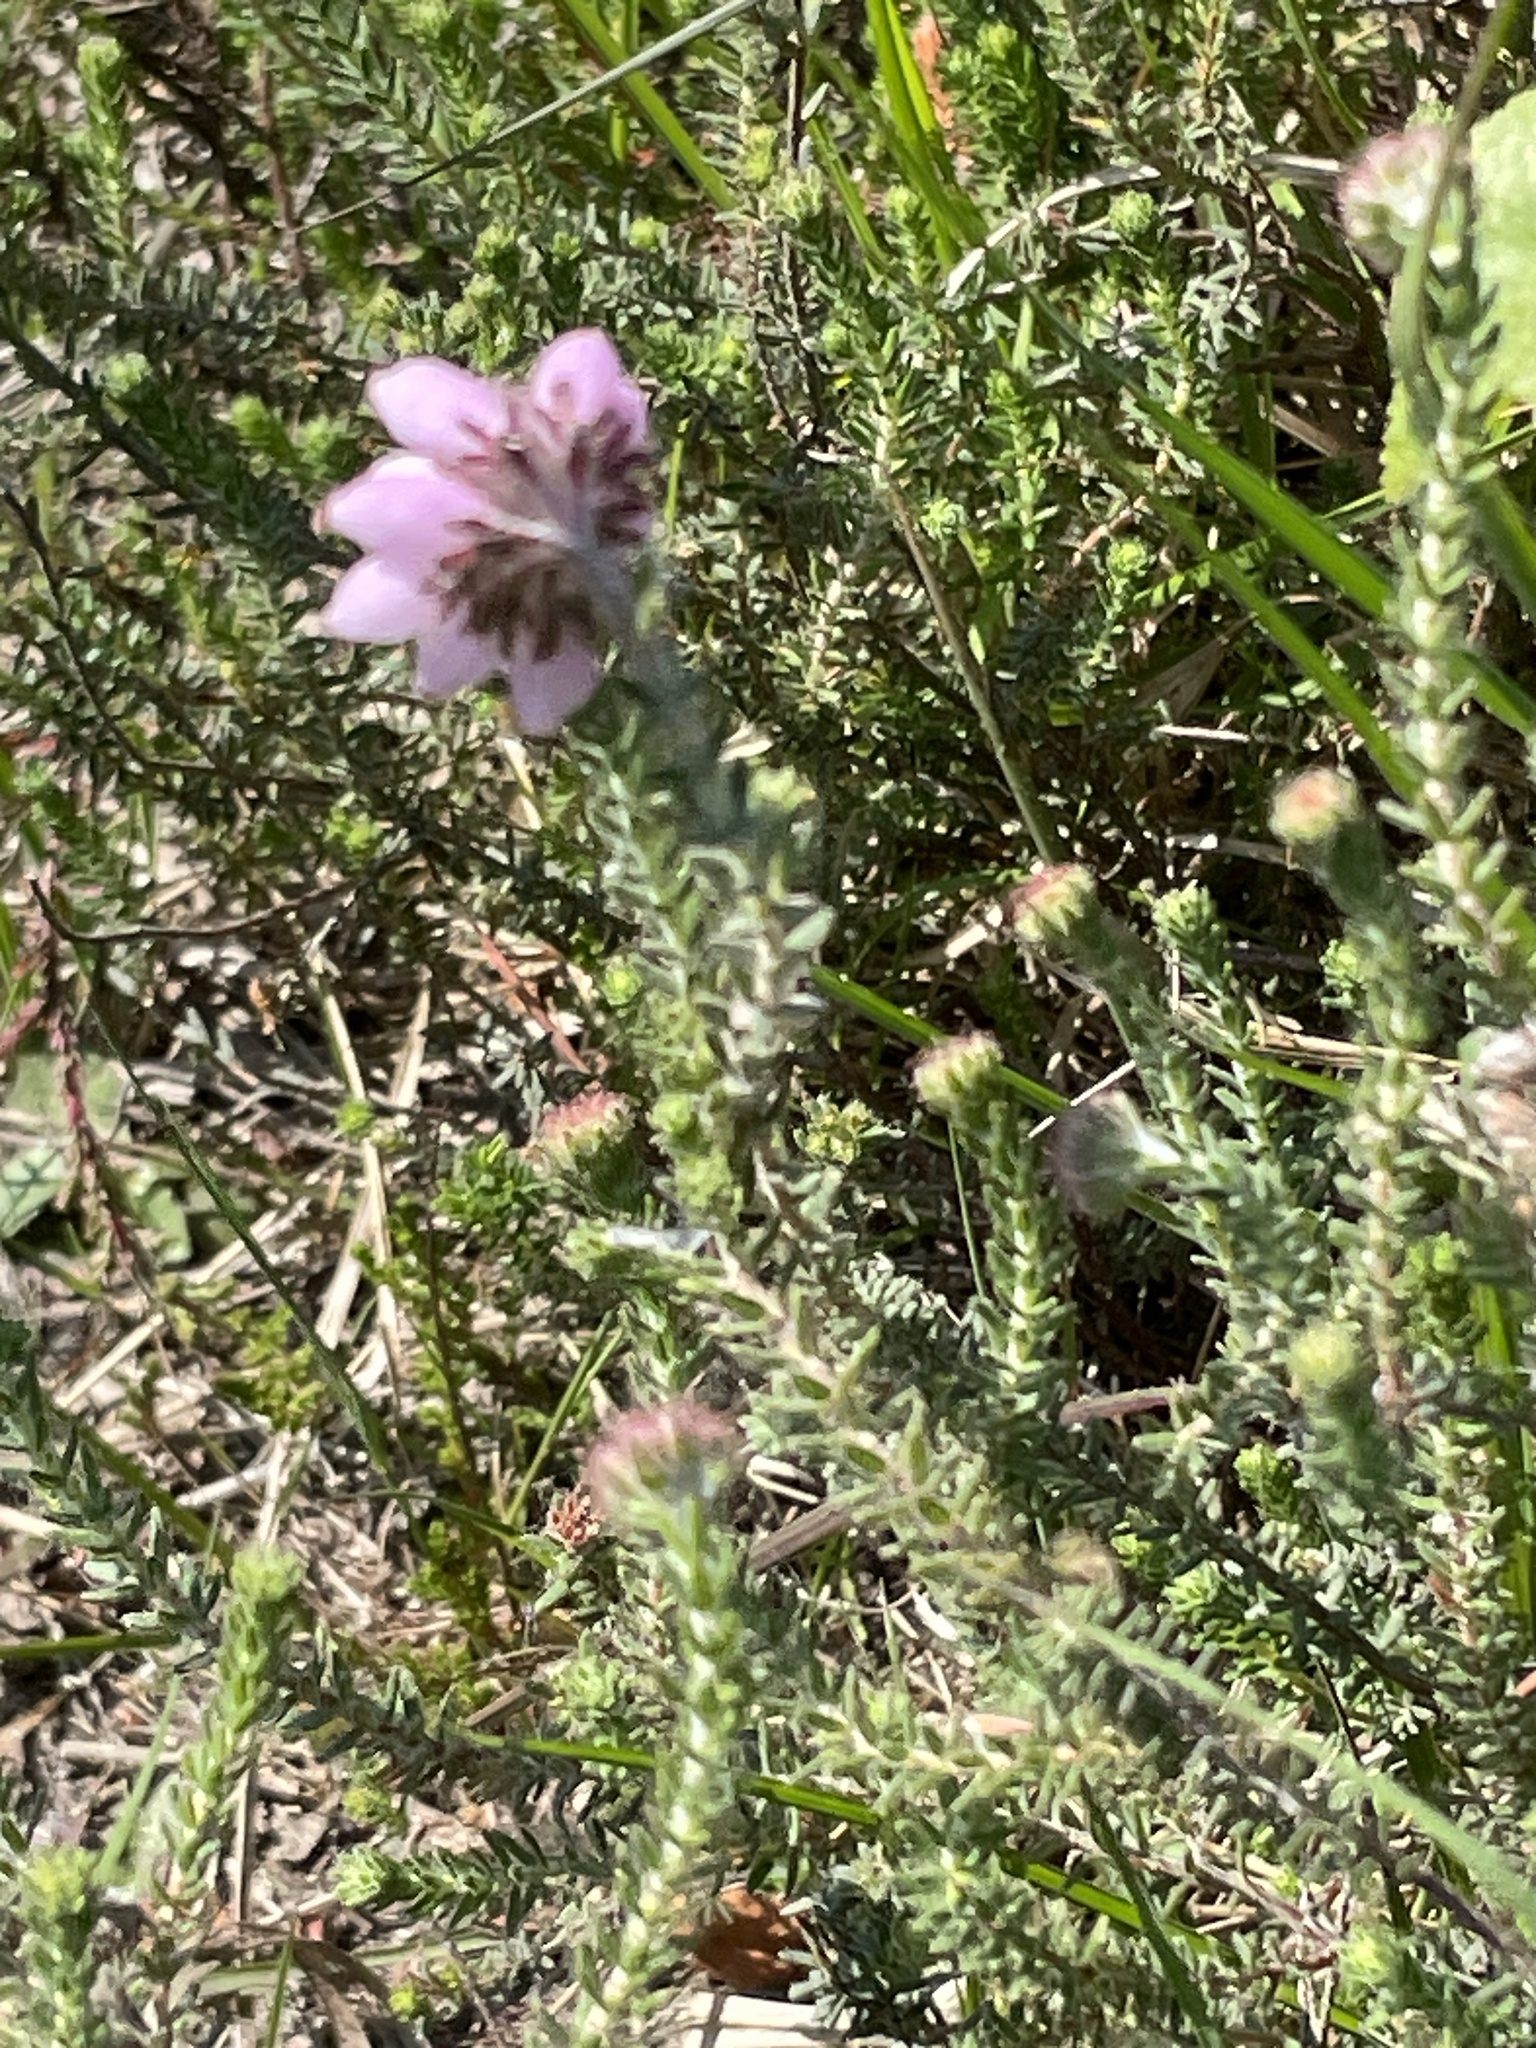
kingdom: Plantae
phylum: Tracheophyta
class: Magnoliopsida
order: Ericales
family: Ericaceae
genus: Erica
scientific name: Erica tetralix
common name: Cross-leaved heath
